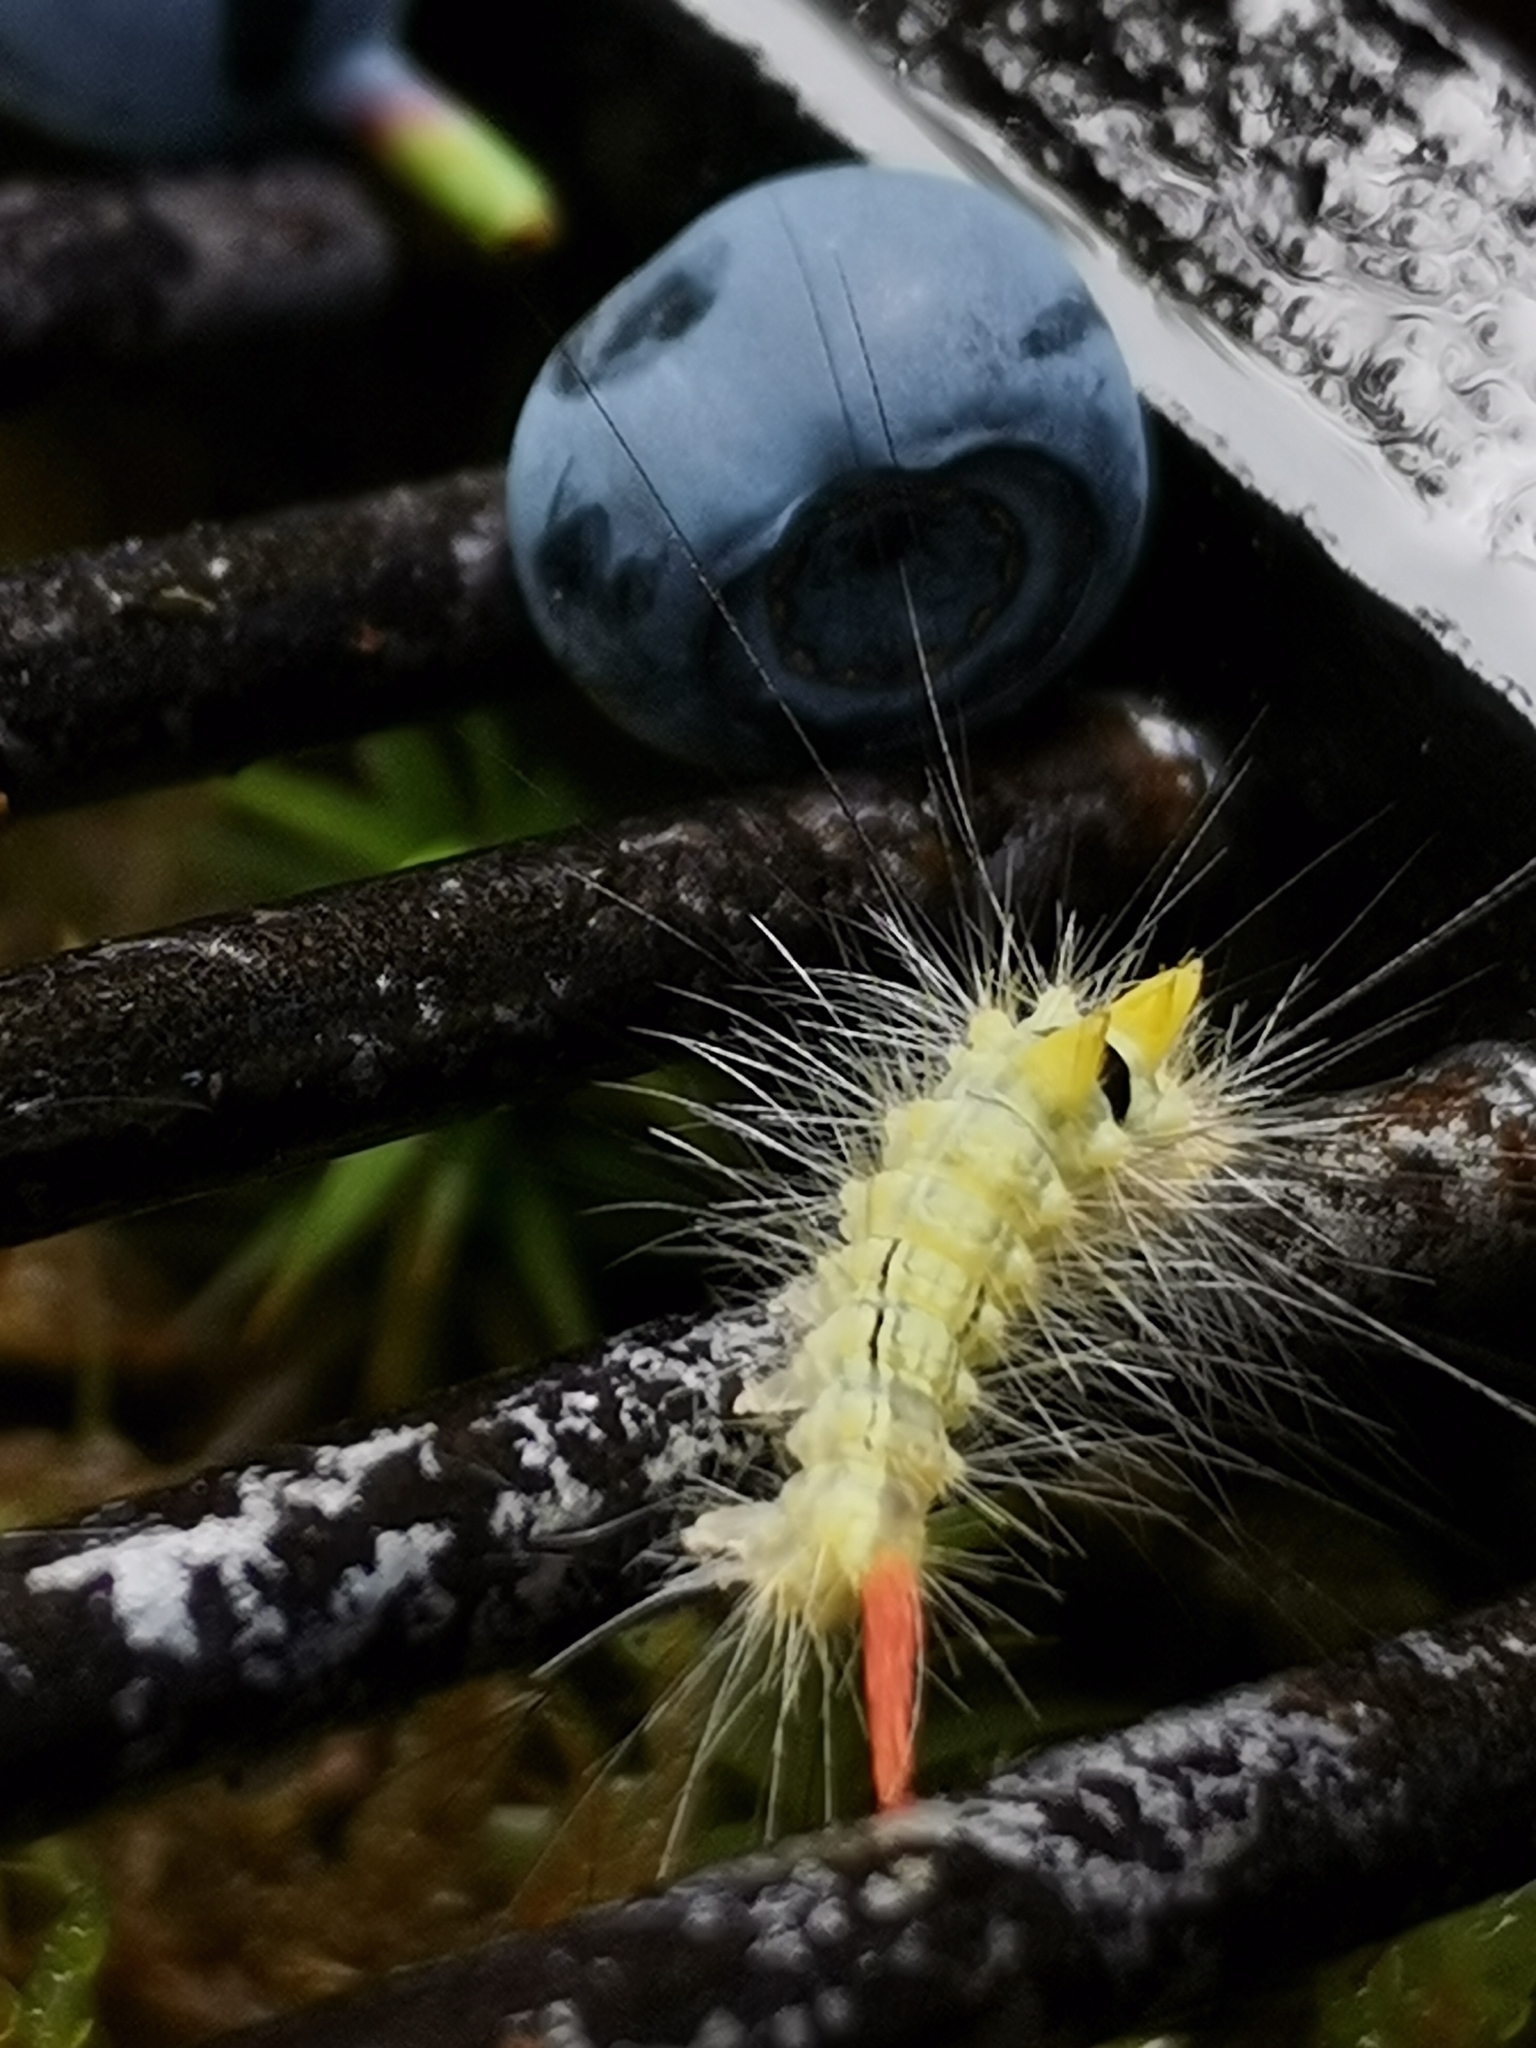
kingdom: Animalia
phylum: Arthropoda
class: Insecta
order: Lepidoptera
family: Erebidae
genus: Calliteara
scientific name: Calliteara pudibunda
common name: Pale tussock
